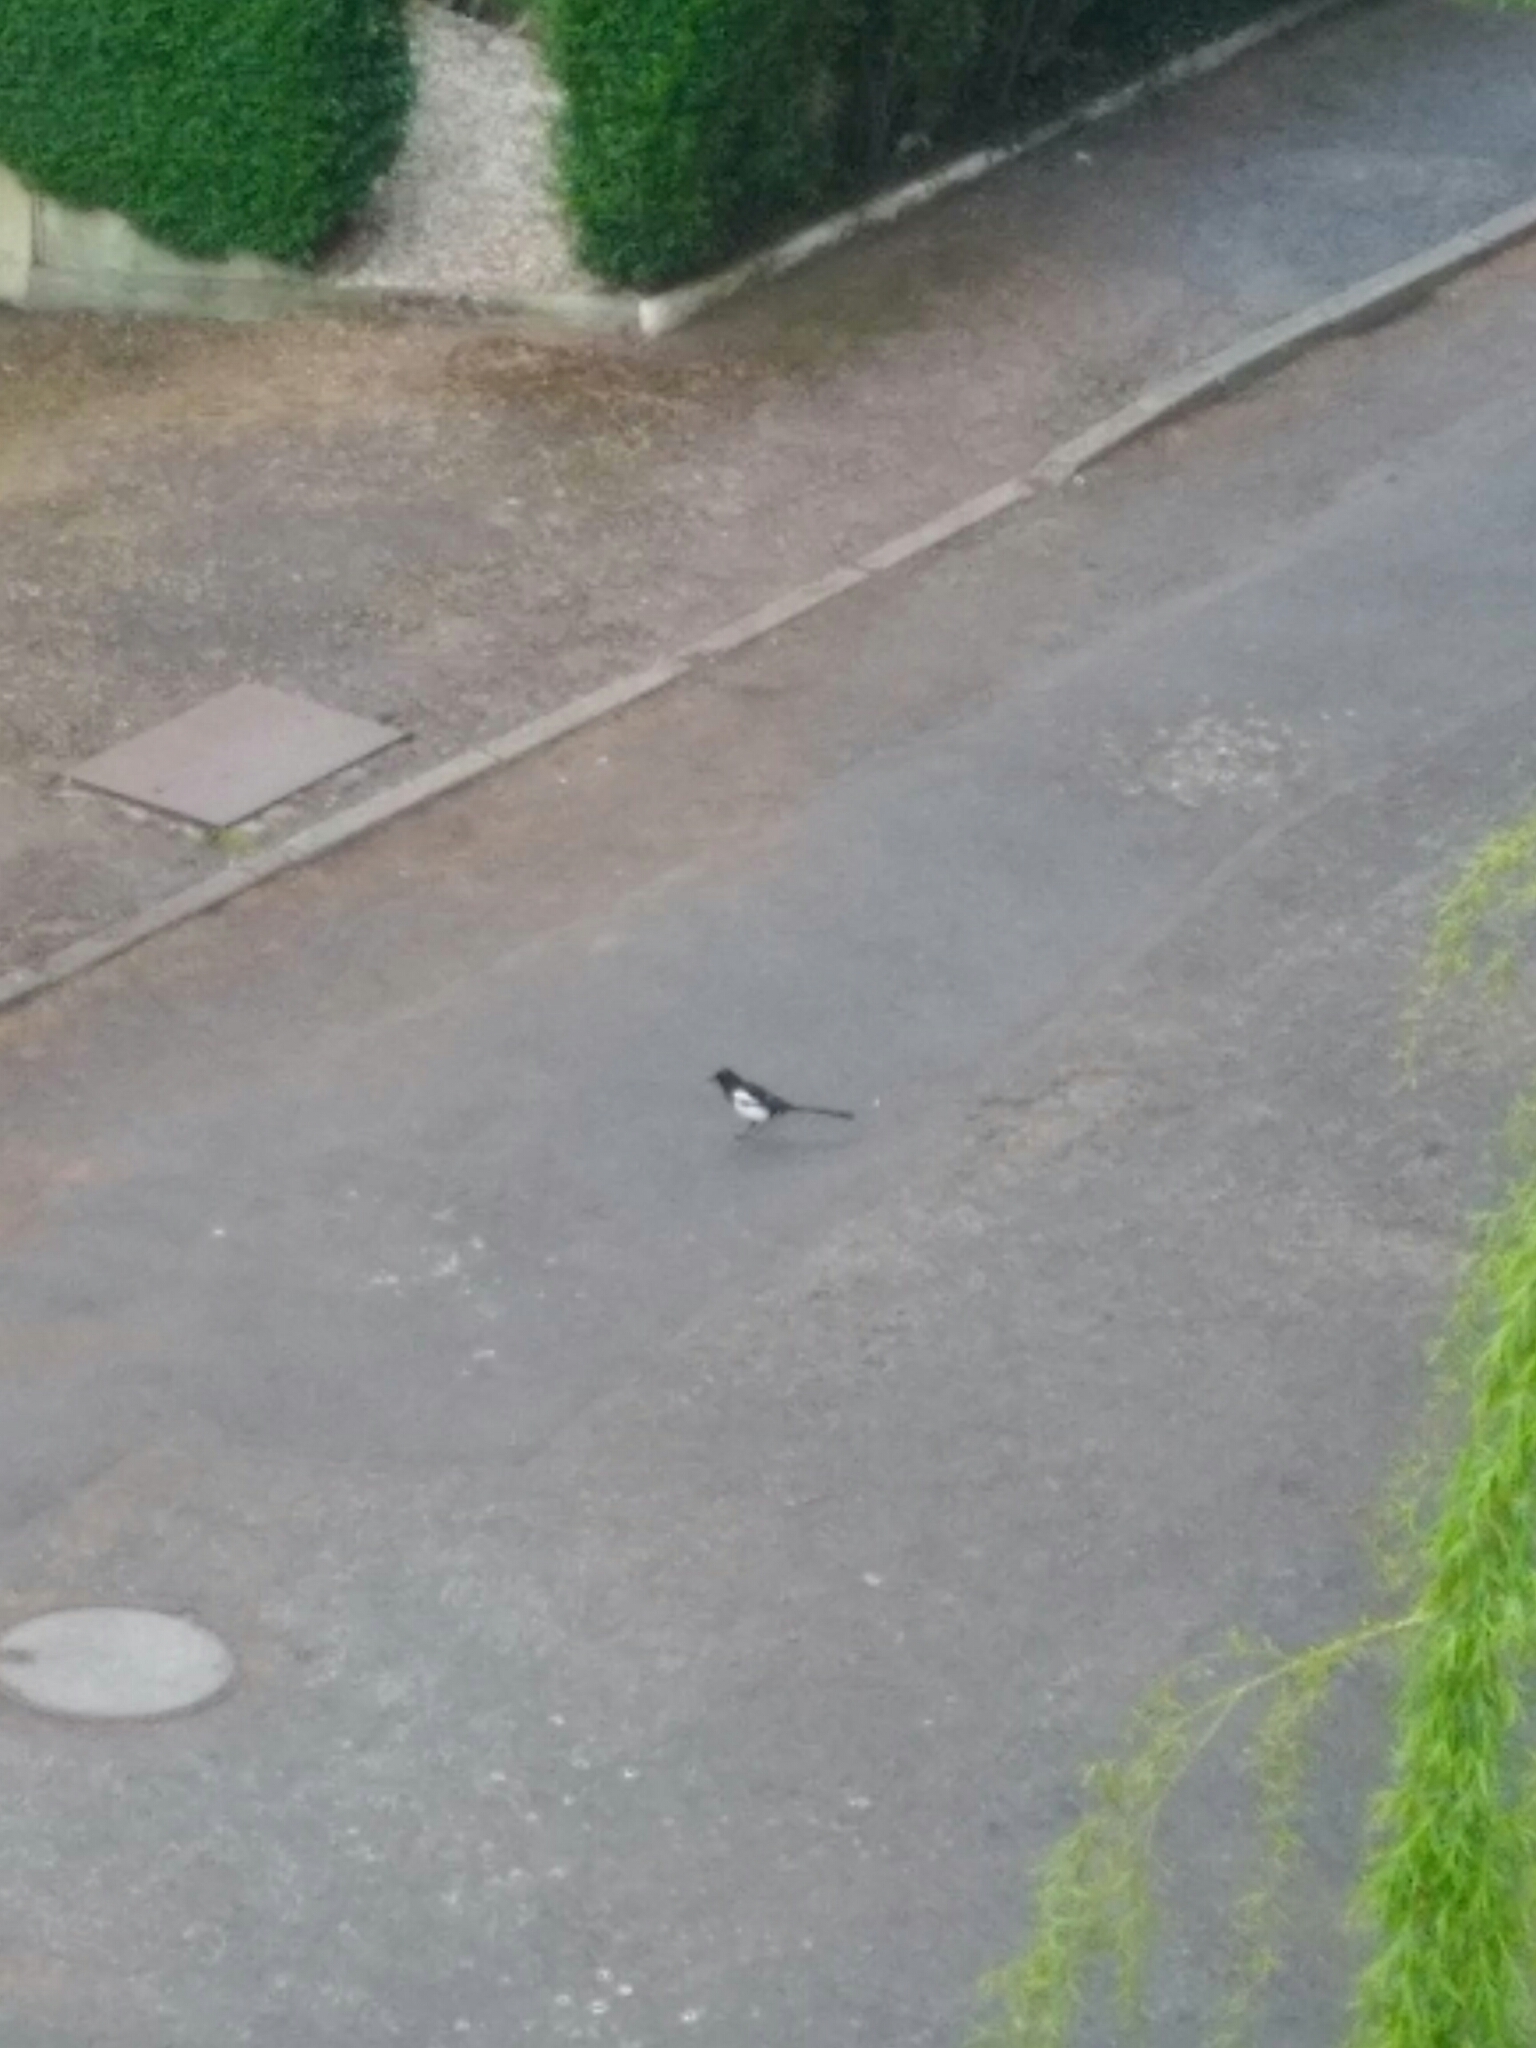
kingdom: Animalia
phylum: Chordata
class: Aves
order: Passeriformes
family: Corvidae
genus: Pica
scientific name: Pica pica
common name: Eurasian magpie
